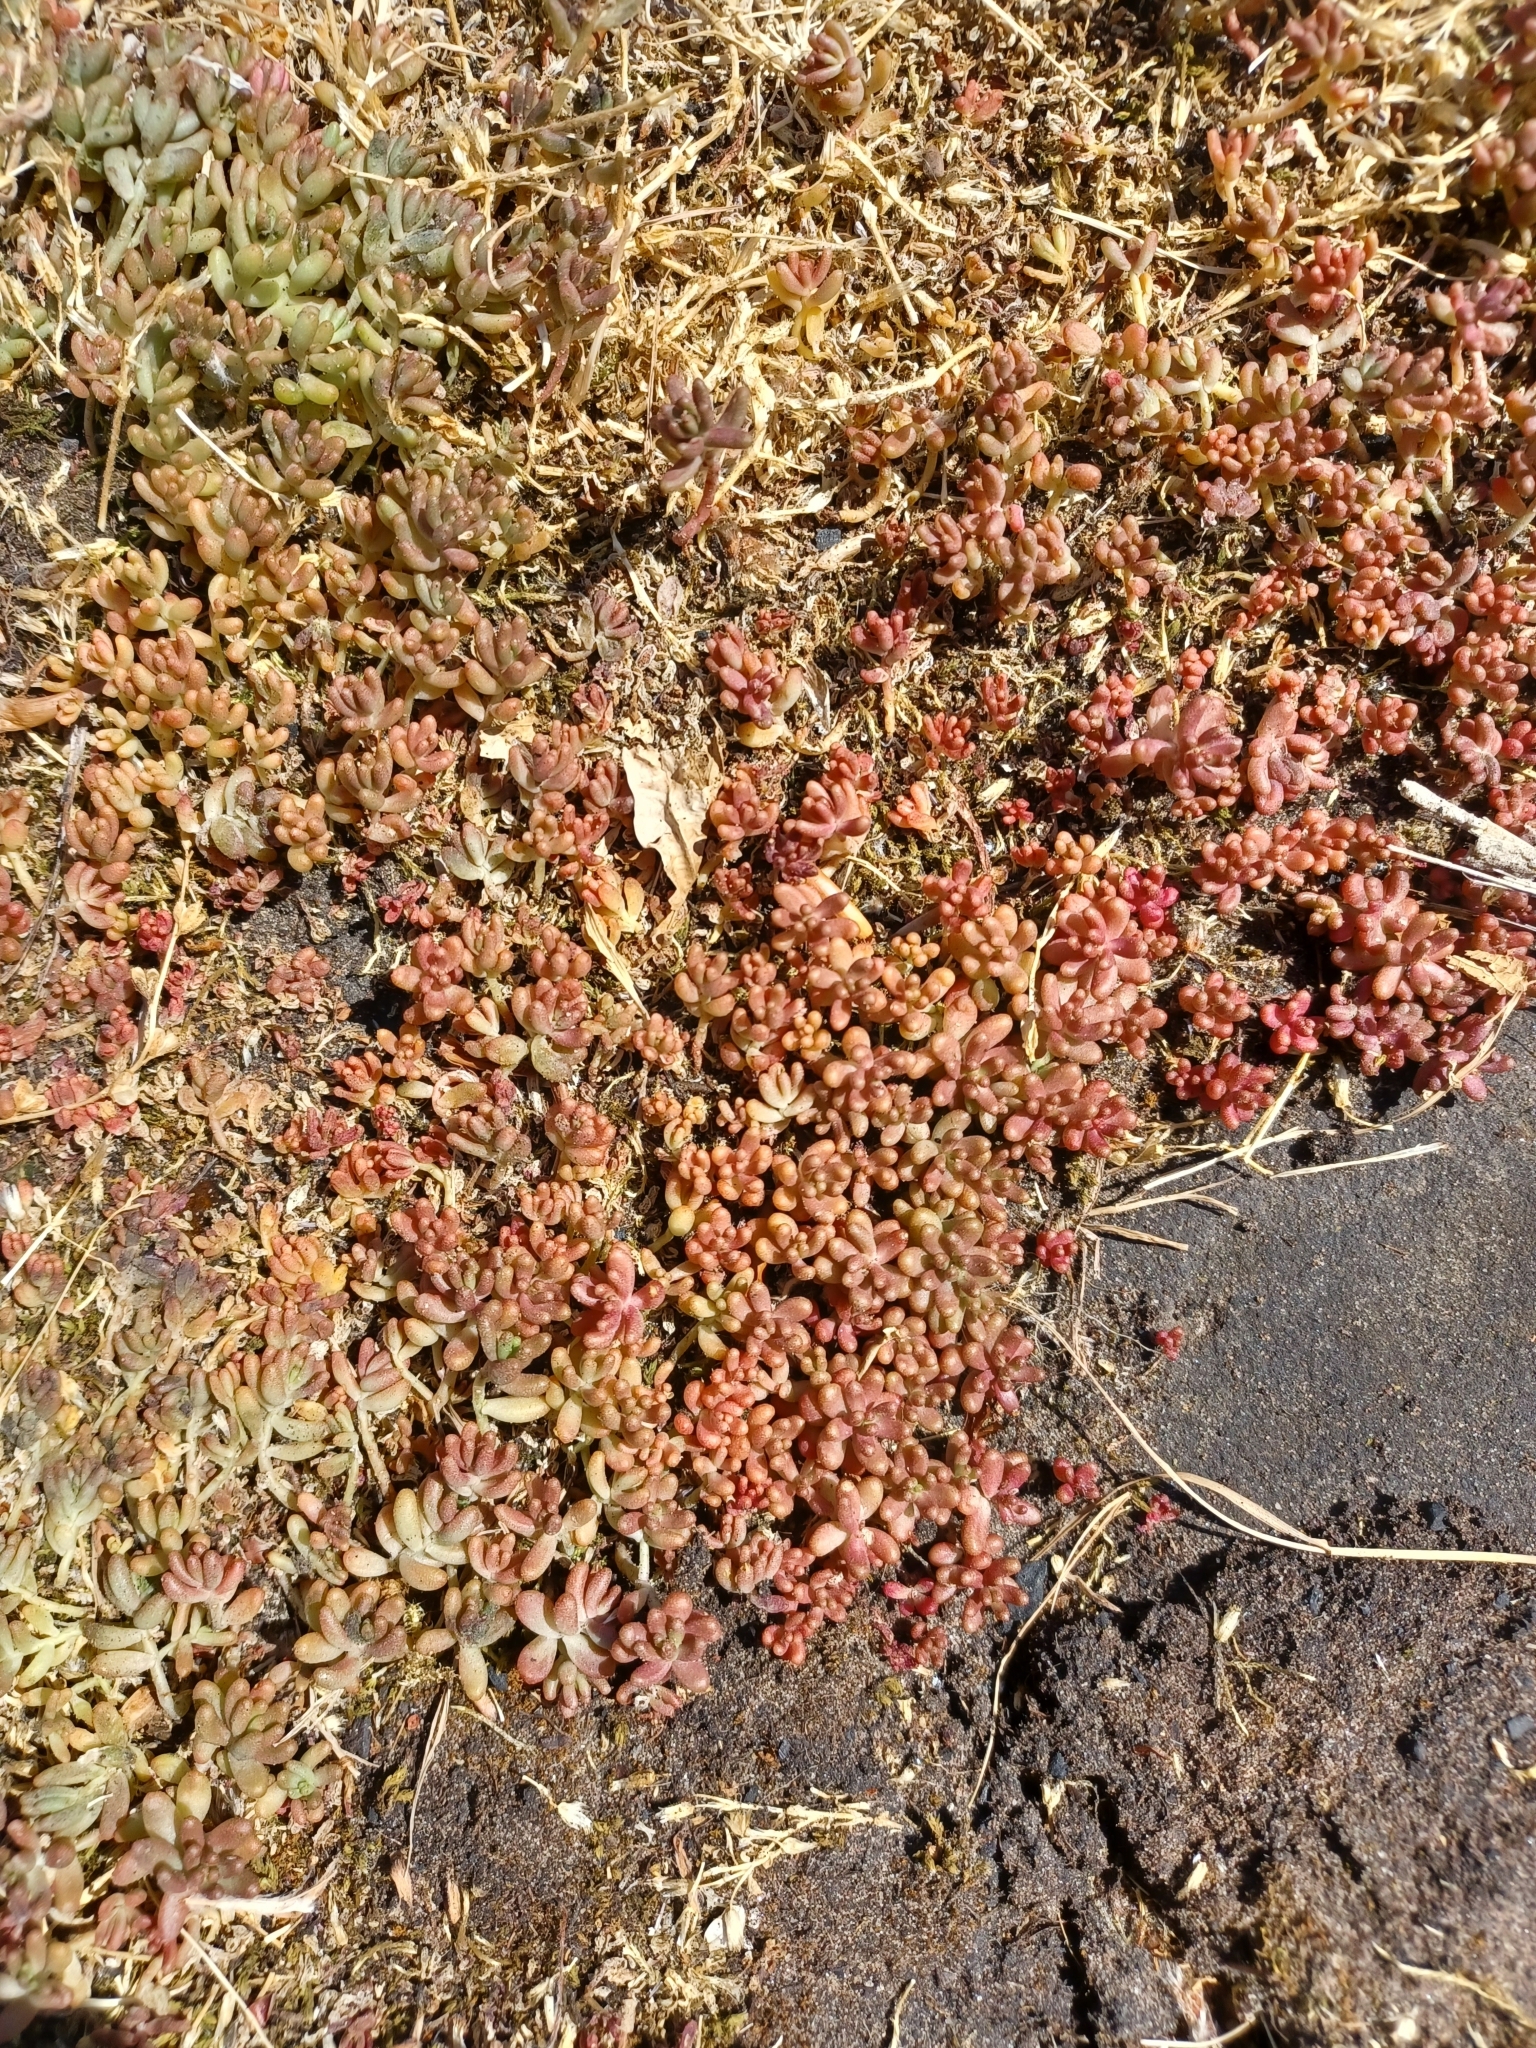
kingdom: Plantae
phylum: Tracheophyta
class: Magnoliopsida
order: Saxifragales
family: Crassulaceae
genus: Sedum
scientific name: Sedum album
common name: White stonecrop
